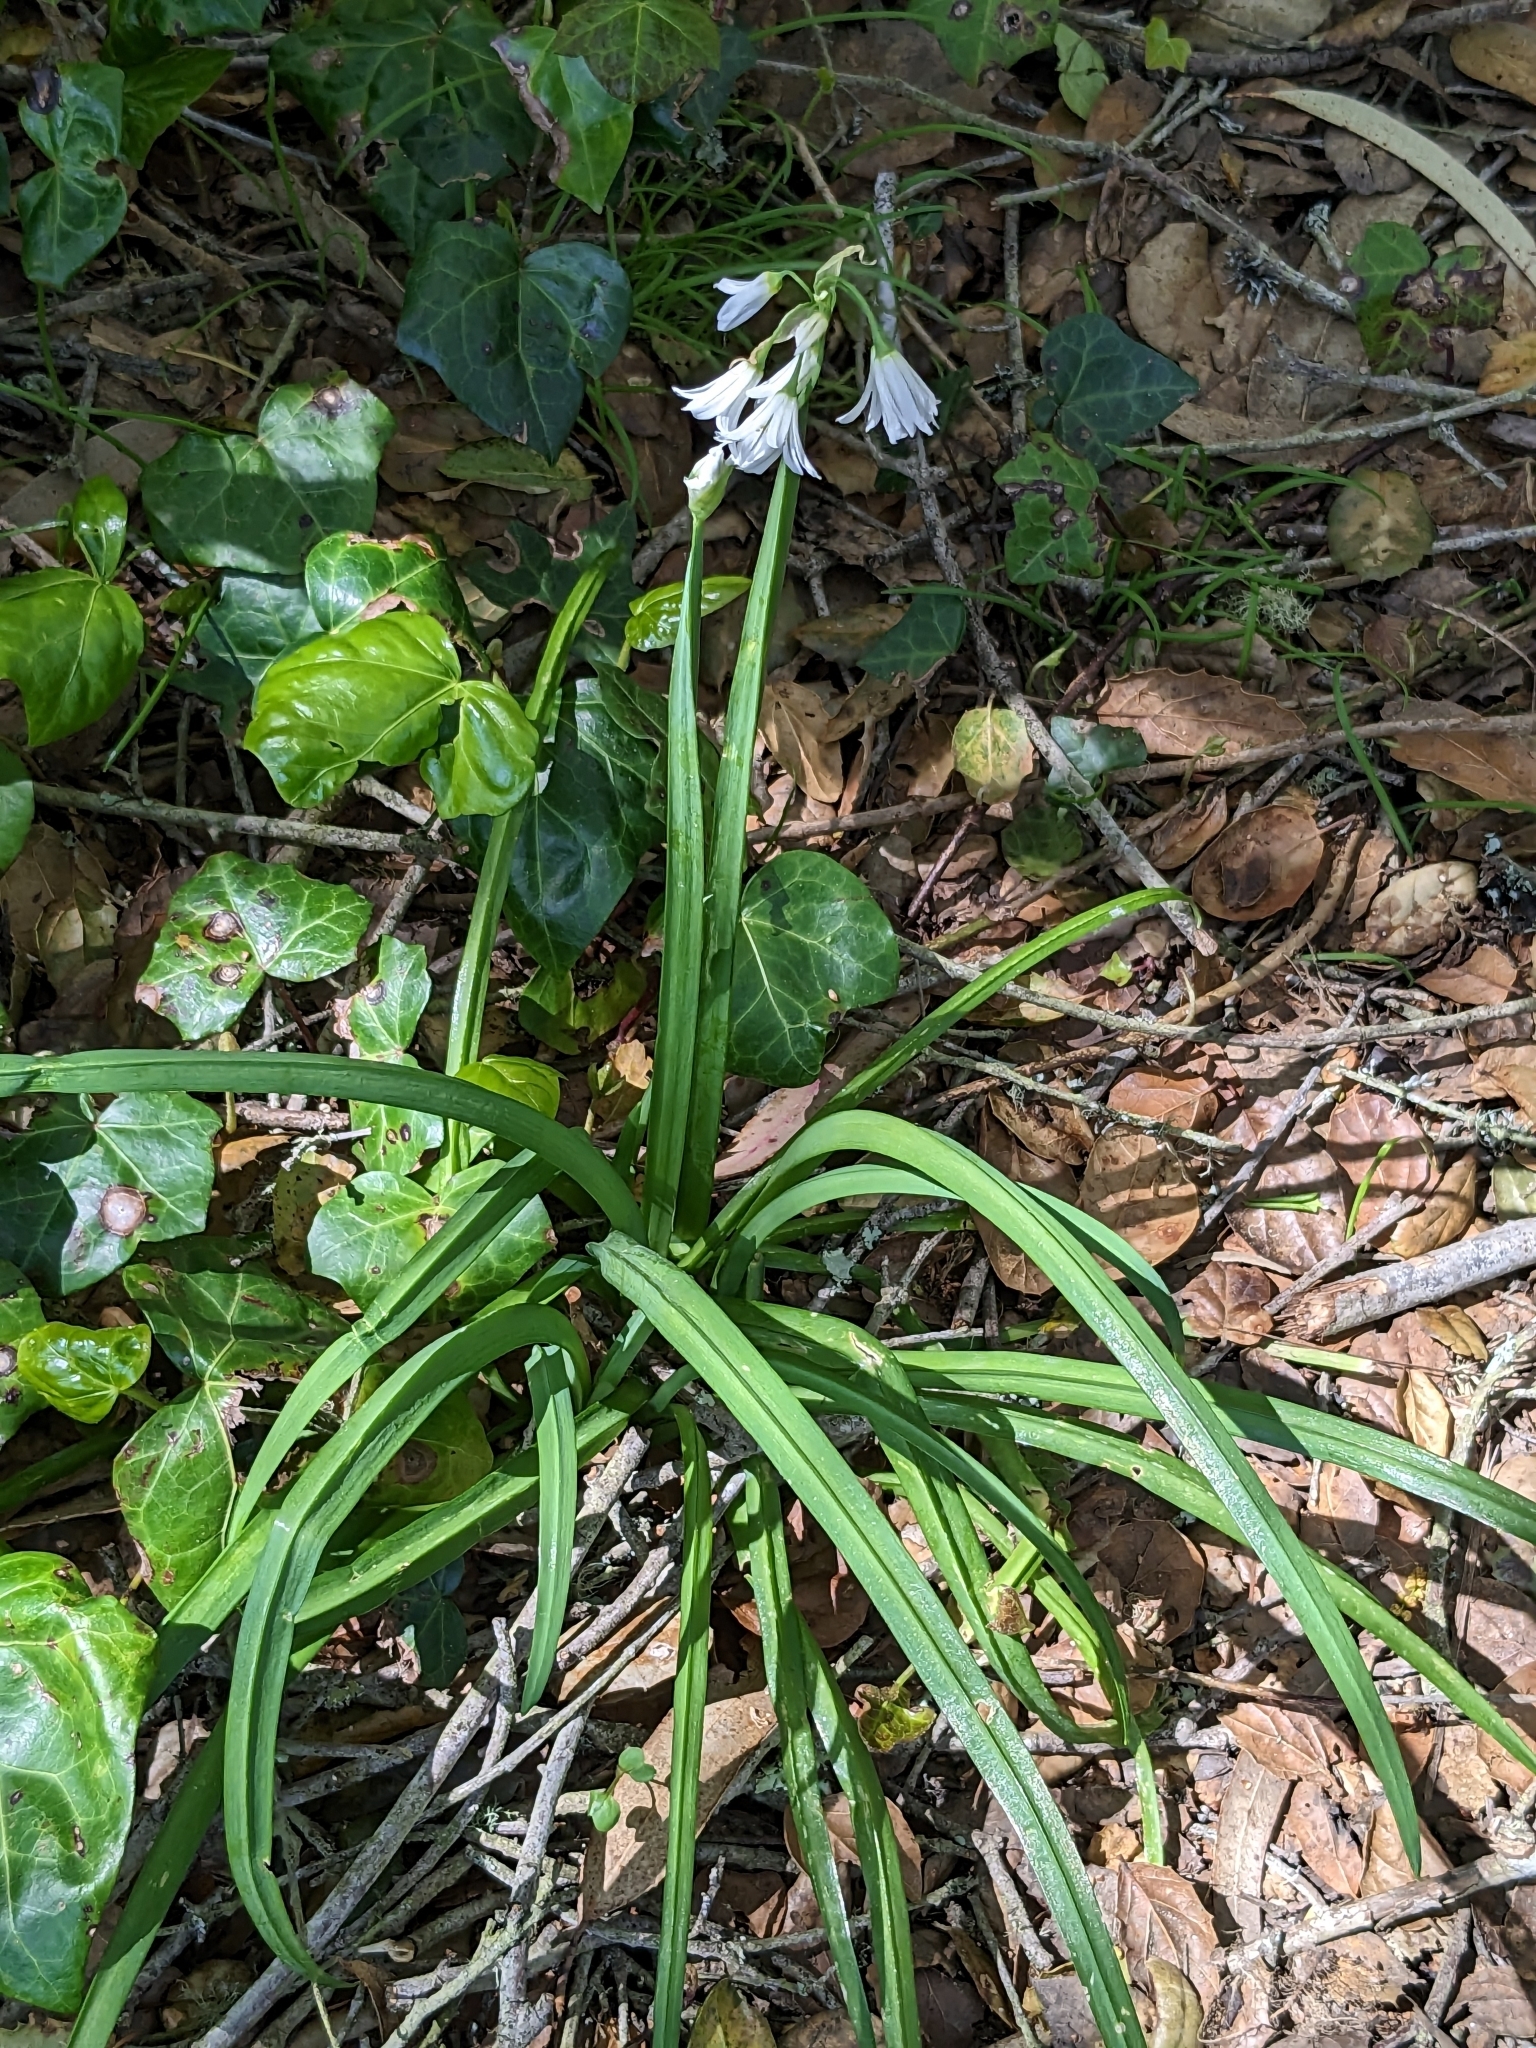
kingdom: Plantae
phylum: Tracheophyta
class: Liliopsida
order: Asparagales
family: Amaryllidaceae
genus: Allium
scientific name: Allium triquetrum
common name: Three-cornered garlic
